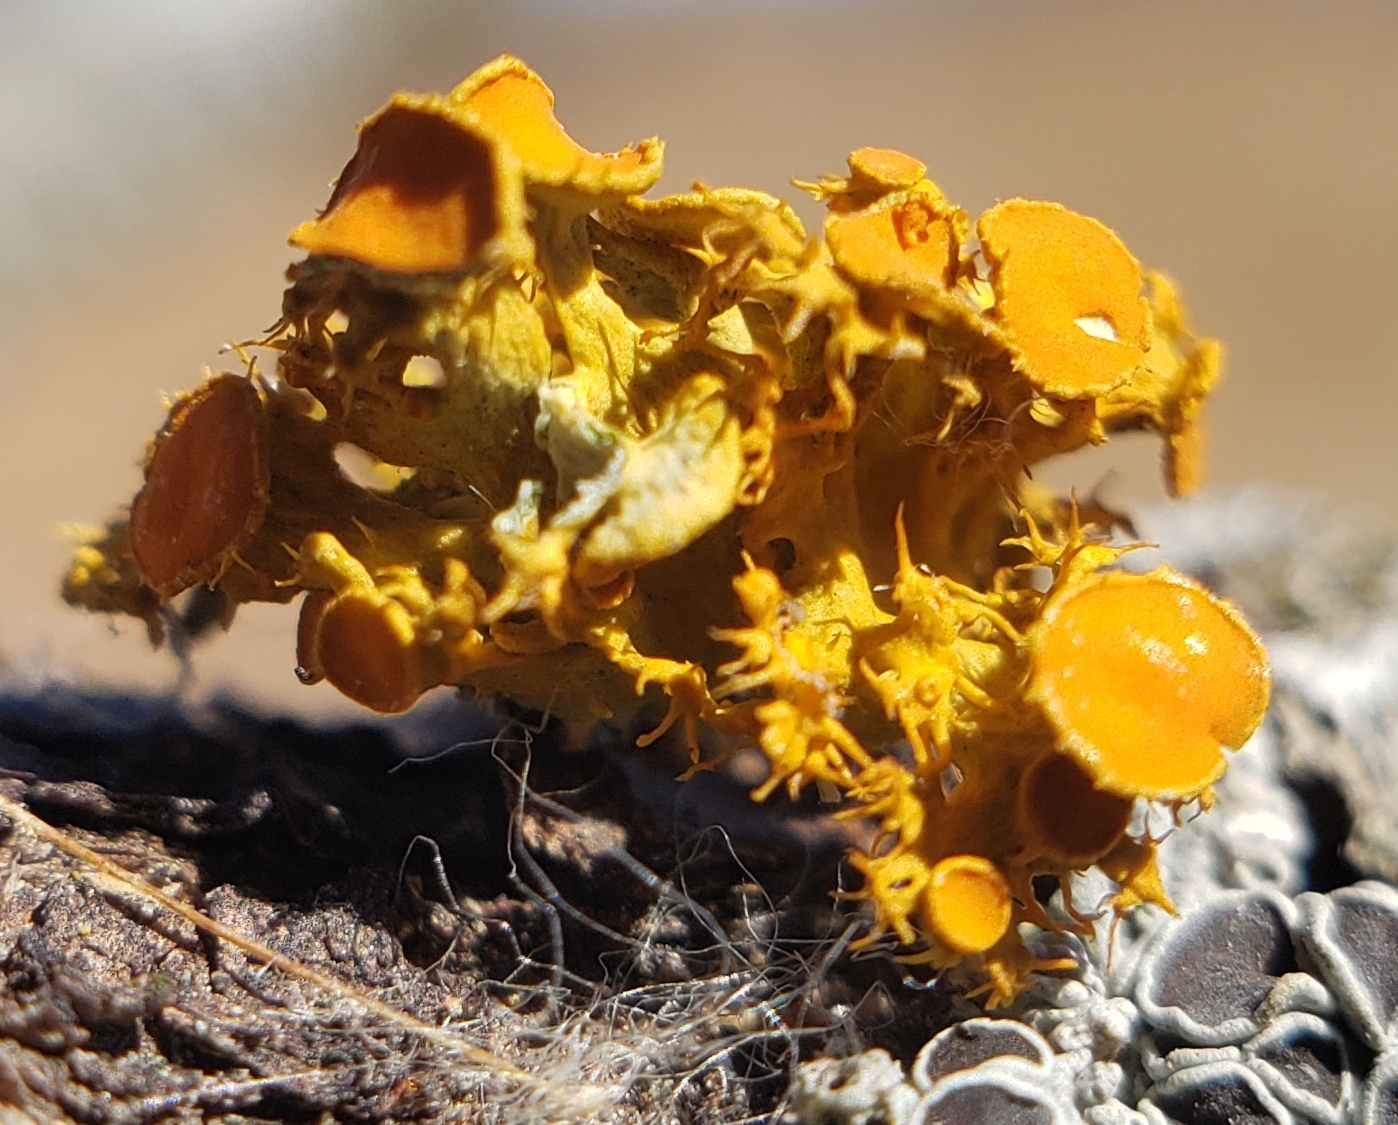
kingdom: Fungi
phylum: Ascomycota
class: Lecanoromycetes
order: Teloschistales
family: Teloschistaceae
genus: Niorma
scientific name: Niorma chrysophthalma
